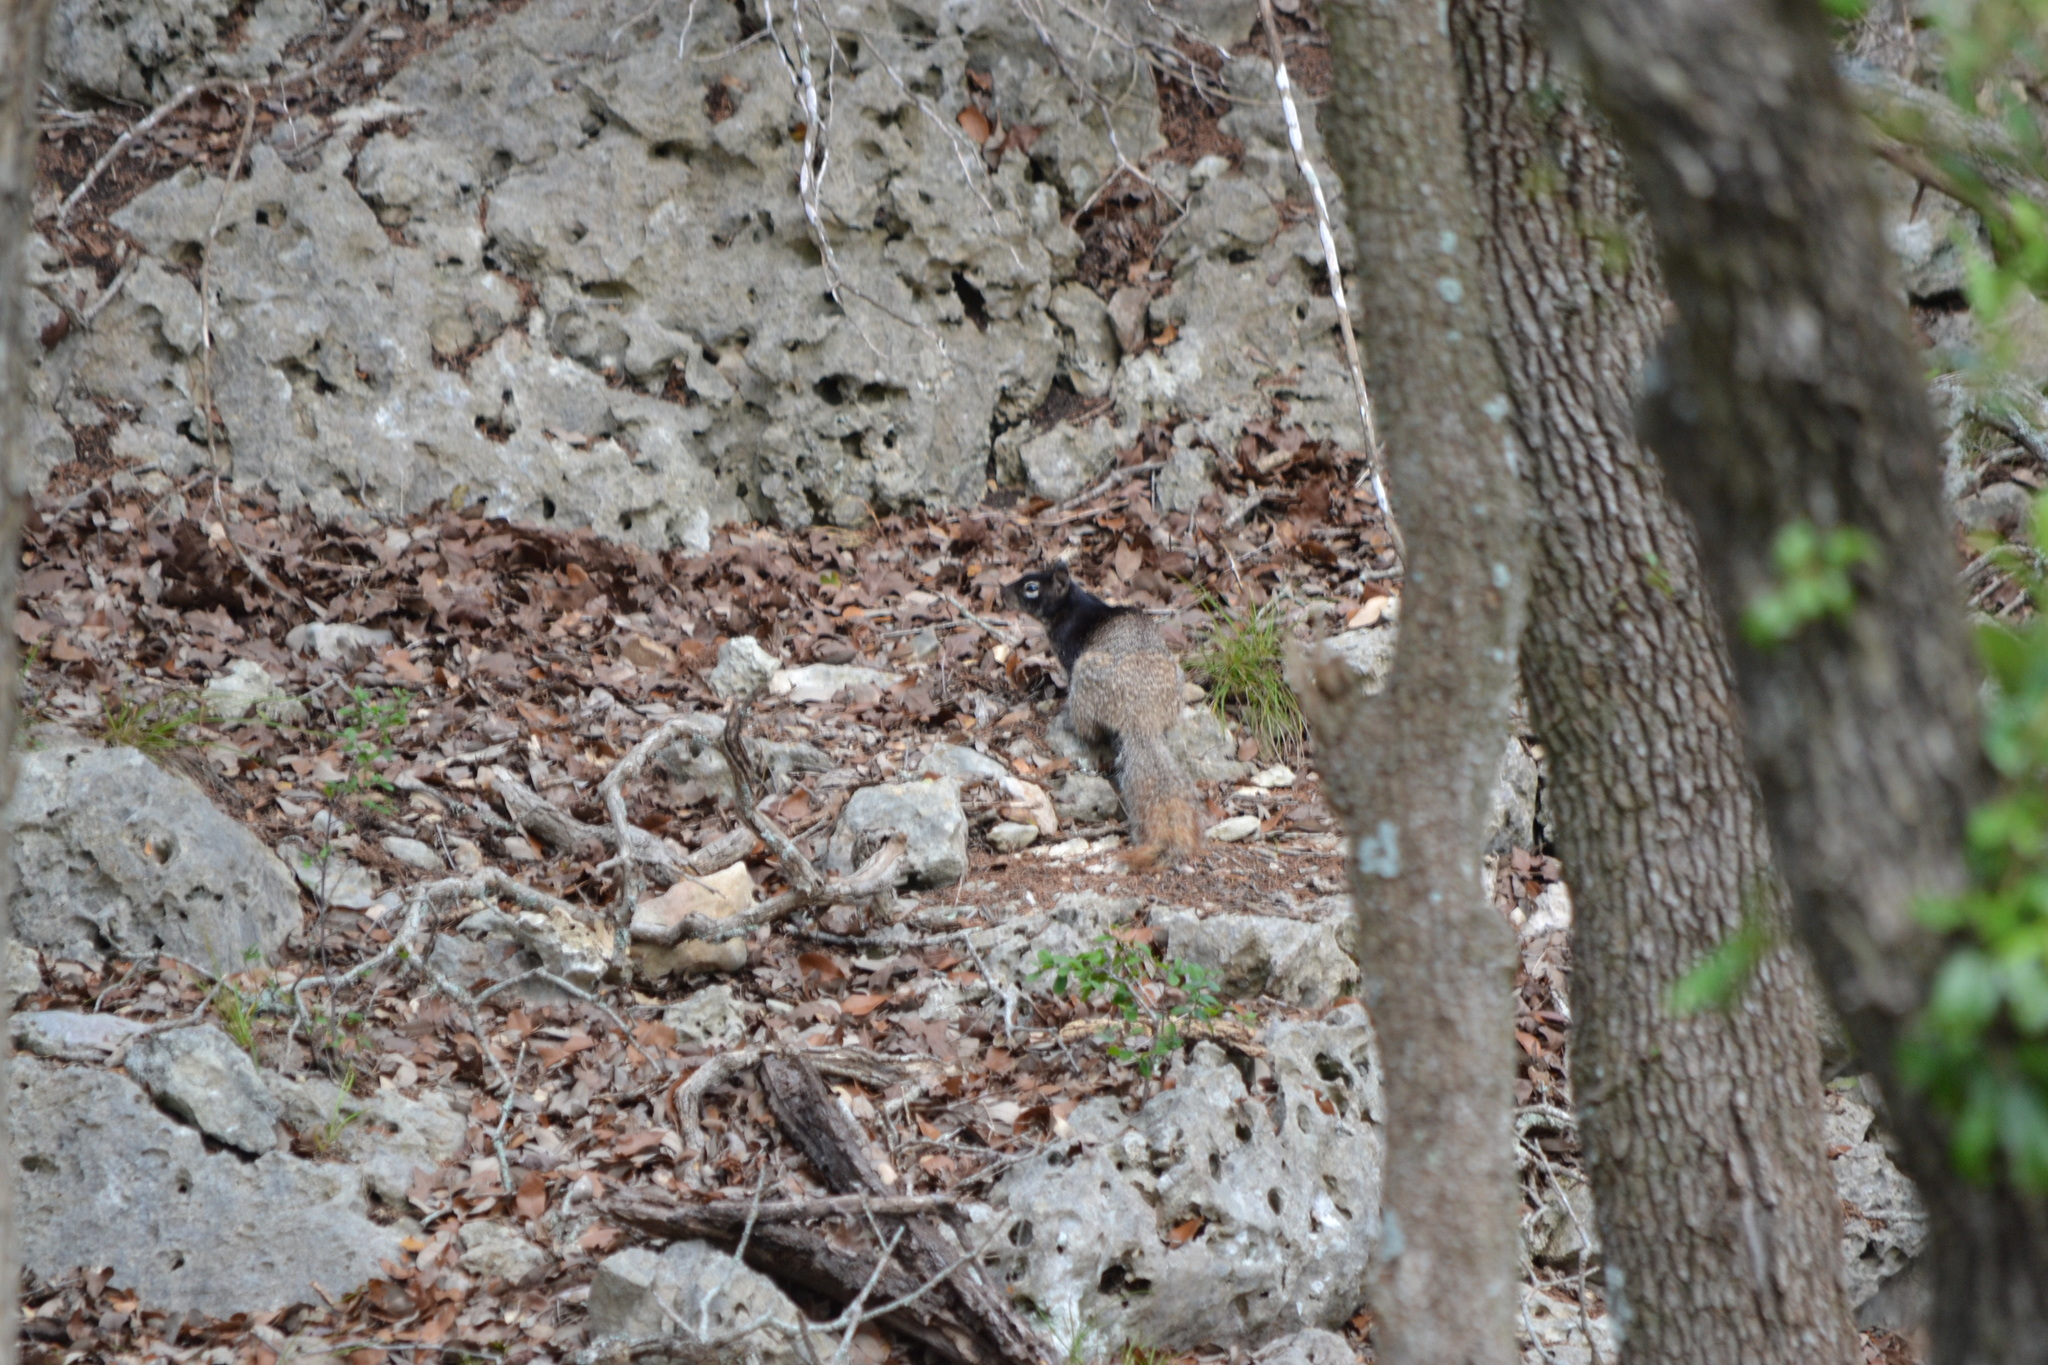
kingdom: Animalia
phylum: Chordata
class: Mammalia
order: Rodentia
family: Sciuridae
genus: Otospermophilus
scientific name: Otospermophilus variegatus
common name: Rock squirrel
